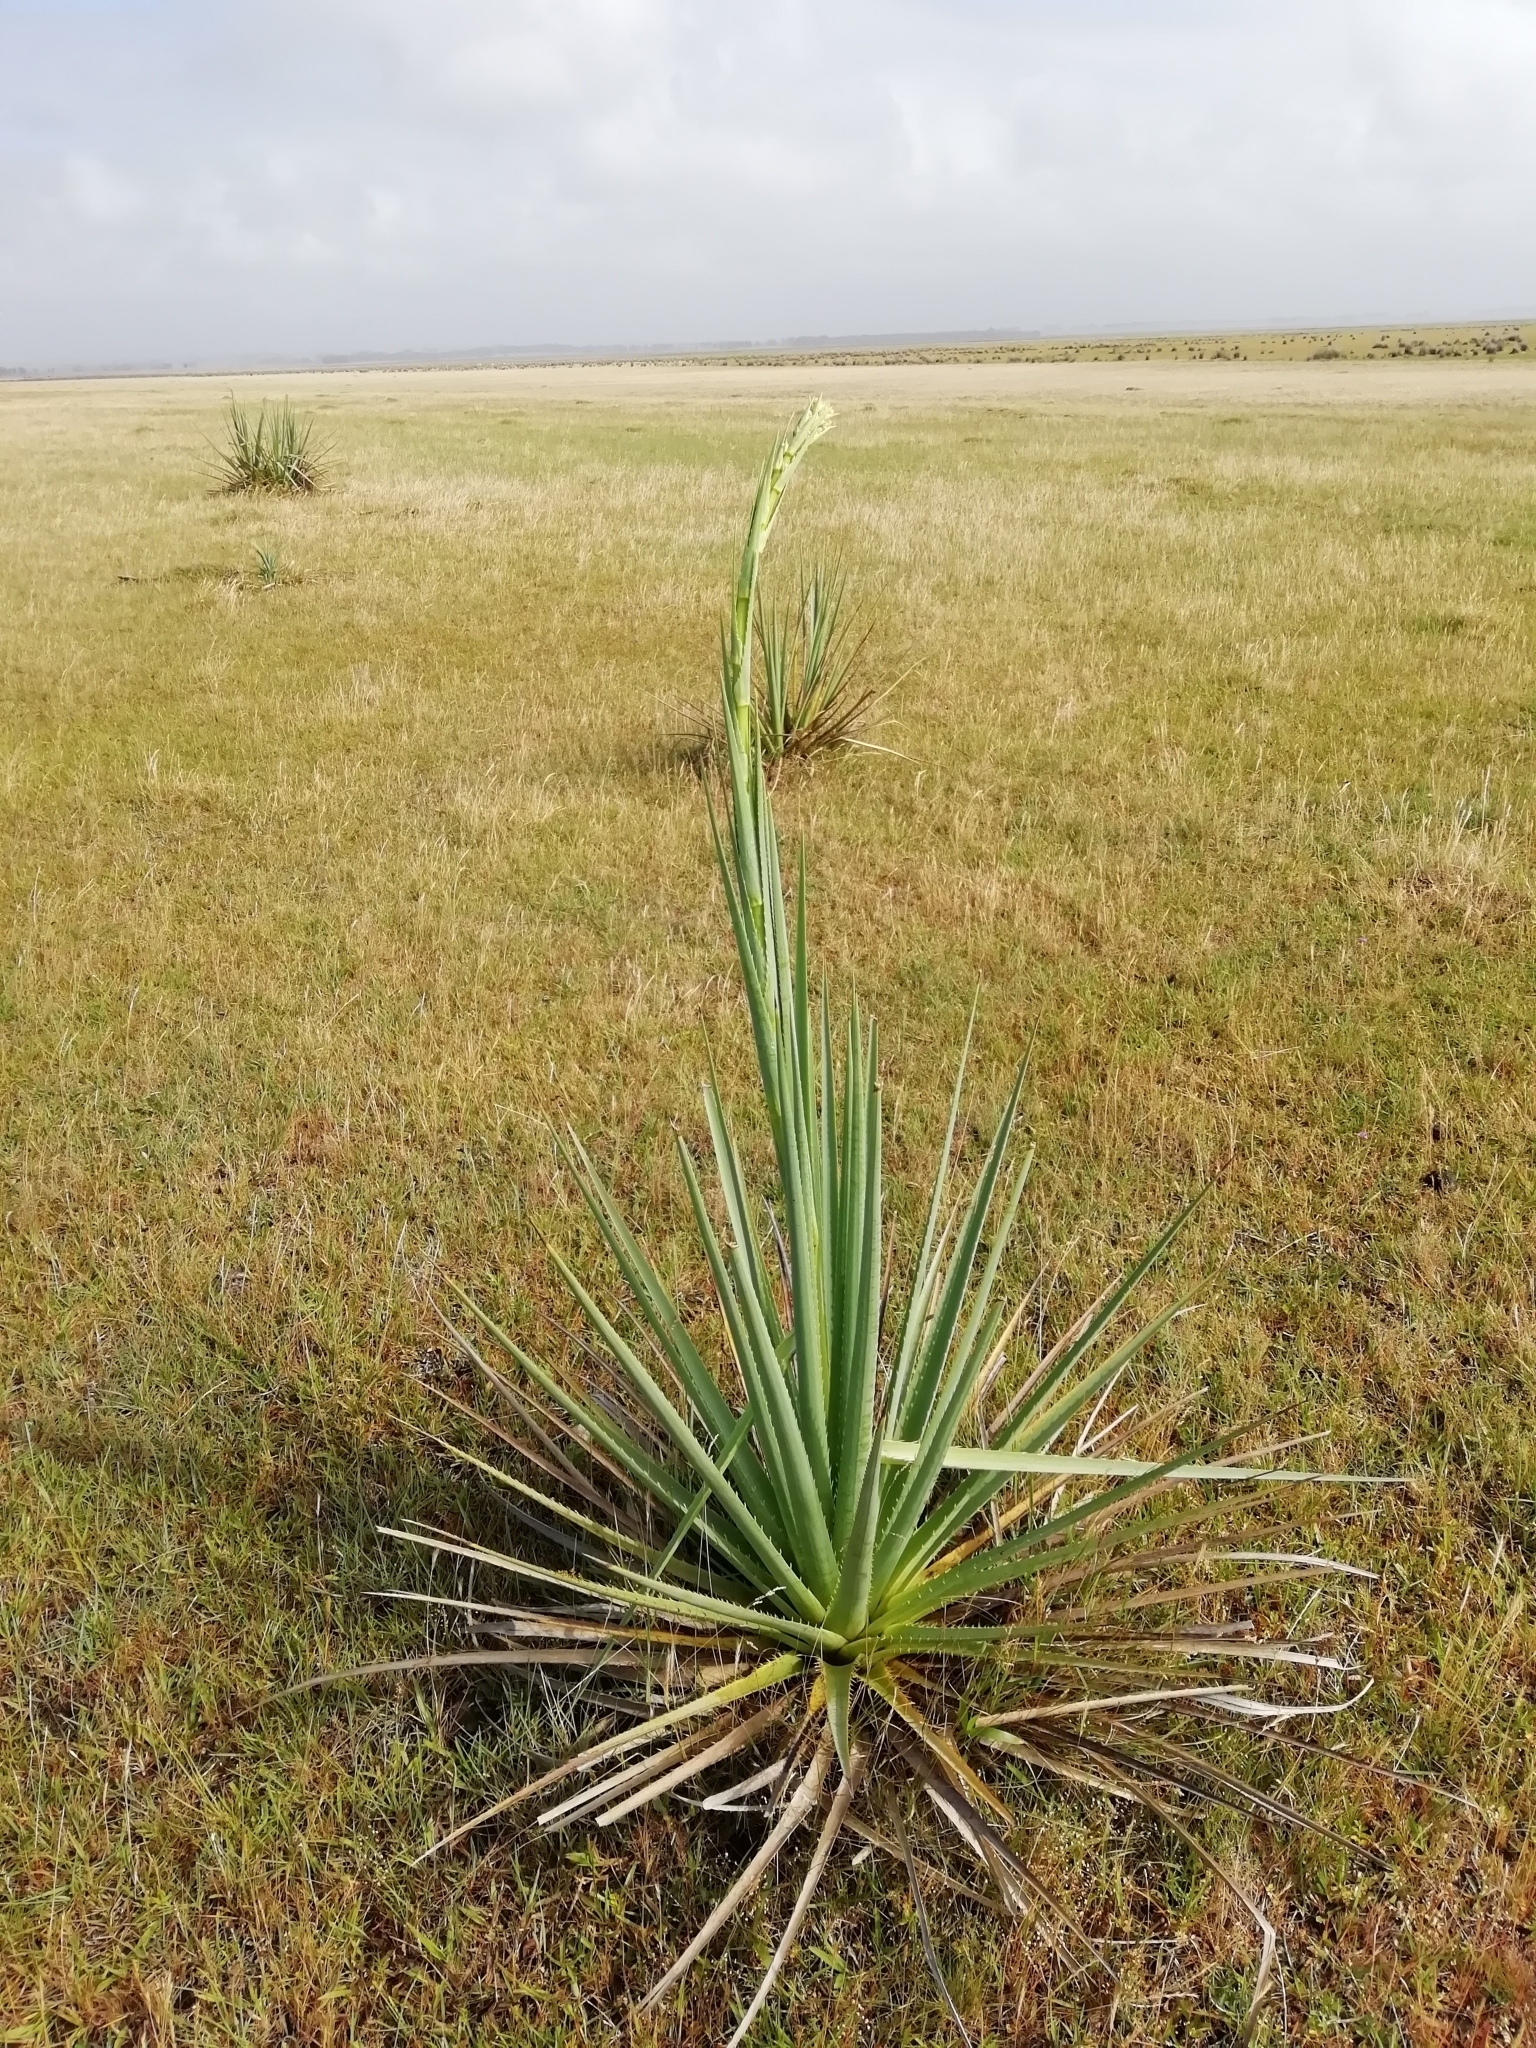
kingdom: Plantae
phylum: Tracheophyta
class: Magnoliopsida
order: Apiales
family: Apiaceae
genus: Eryngium
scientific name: Eryngium pandanifolium
